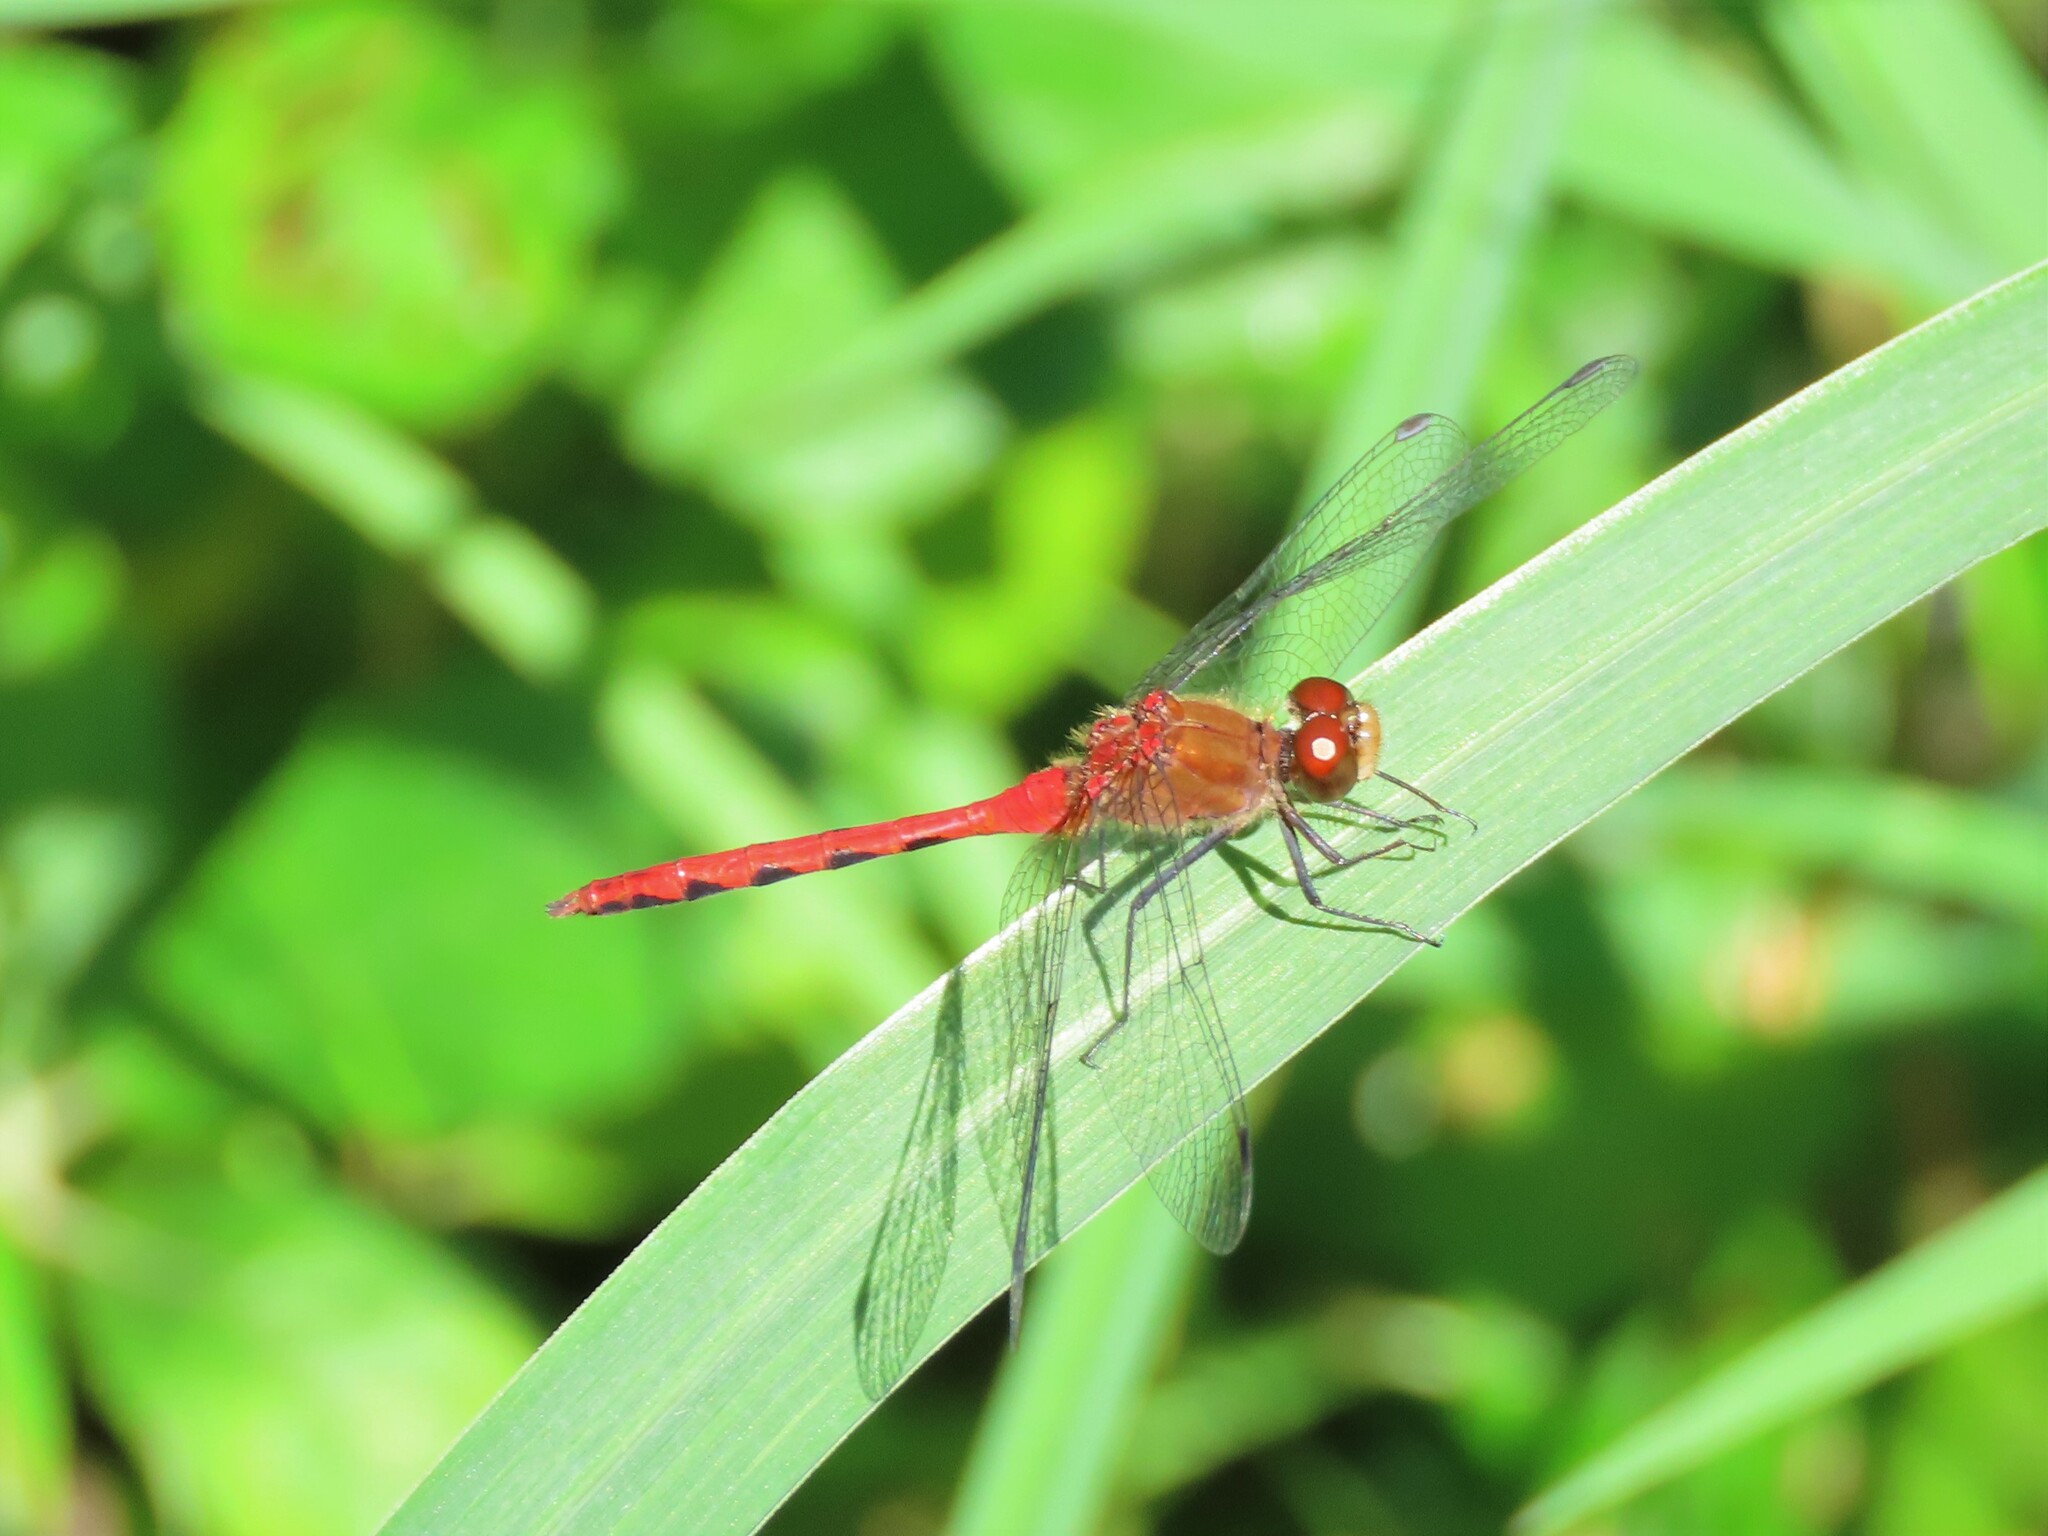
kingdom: Animalia
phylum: Arthropoda
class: Insecta
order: Odonata
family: Libellulidae
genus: Sympetrum
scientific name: Sympetrum obtrusum
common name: White-faced meadowhawk
